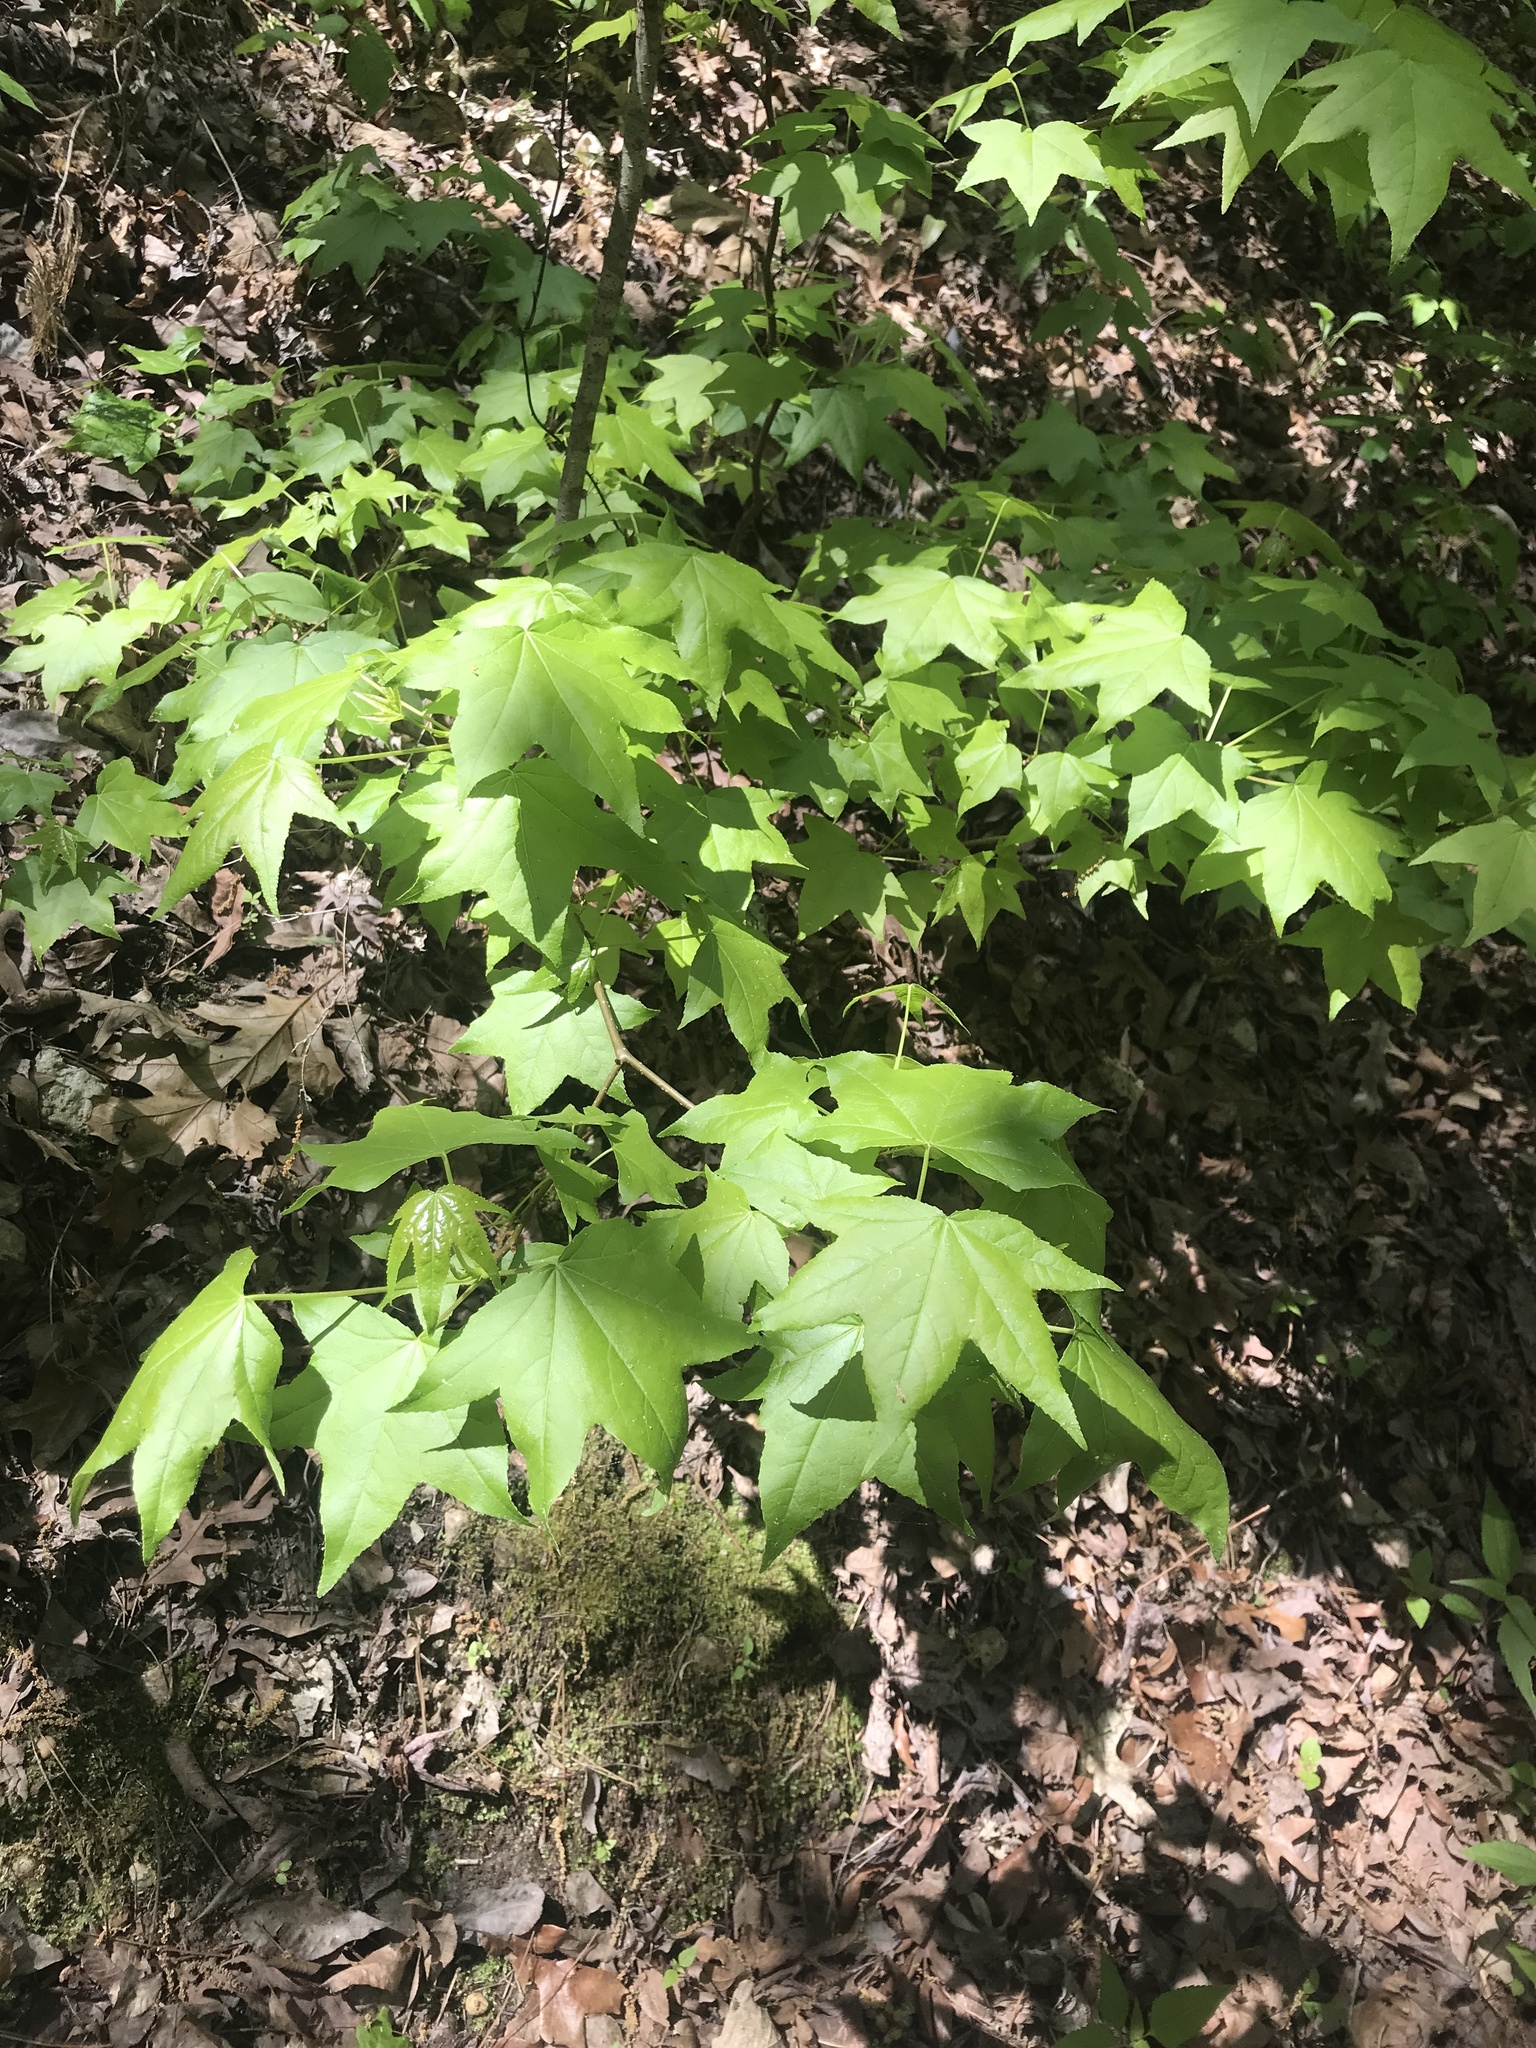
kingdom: Plantae
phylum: Tracheophyta
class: Magnoliopsida
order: Saxifragales
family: Altingiaceae
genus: Liquidambar
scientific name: Liquidambar styraciflua
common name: Sweet gum
